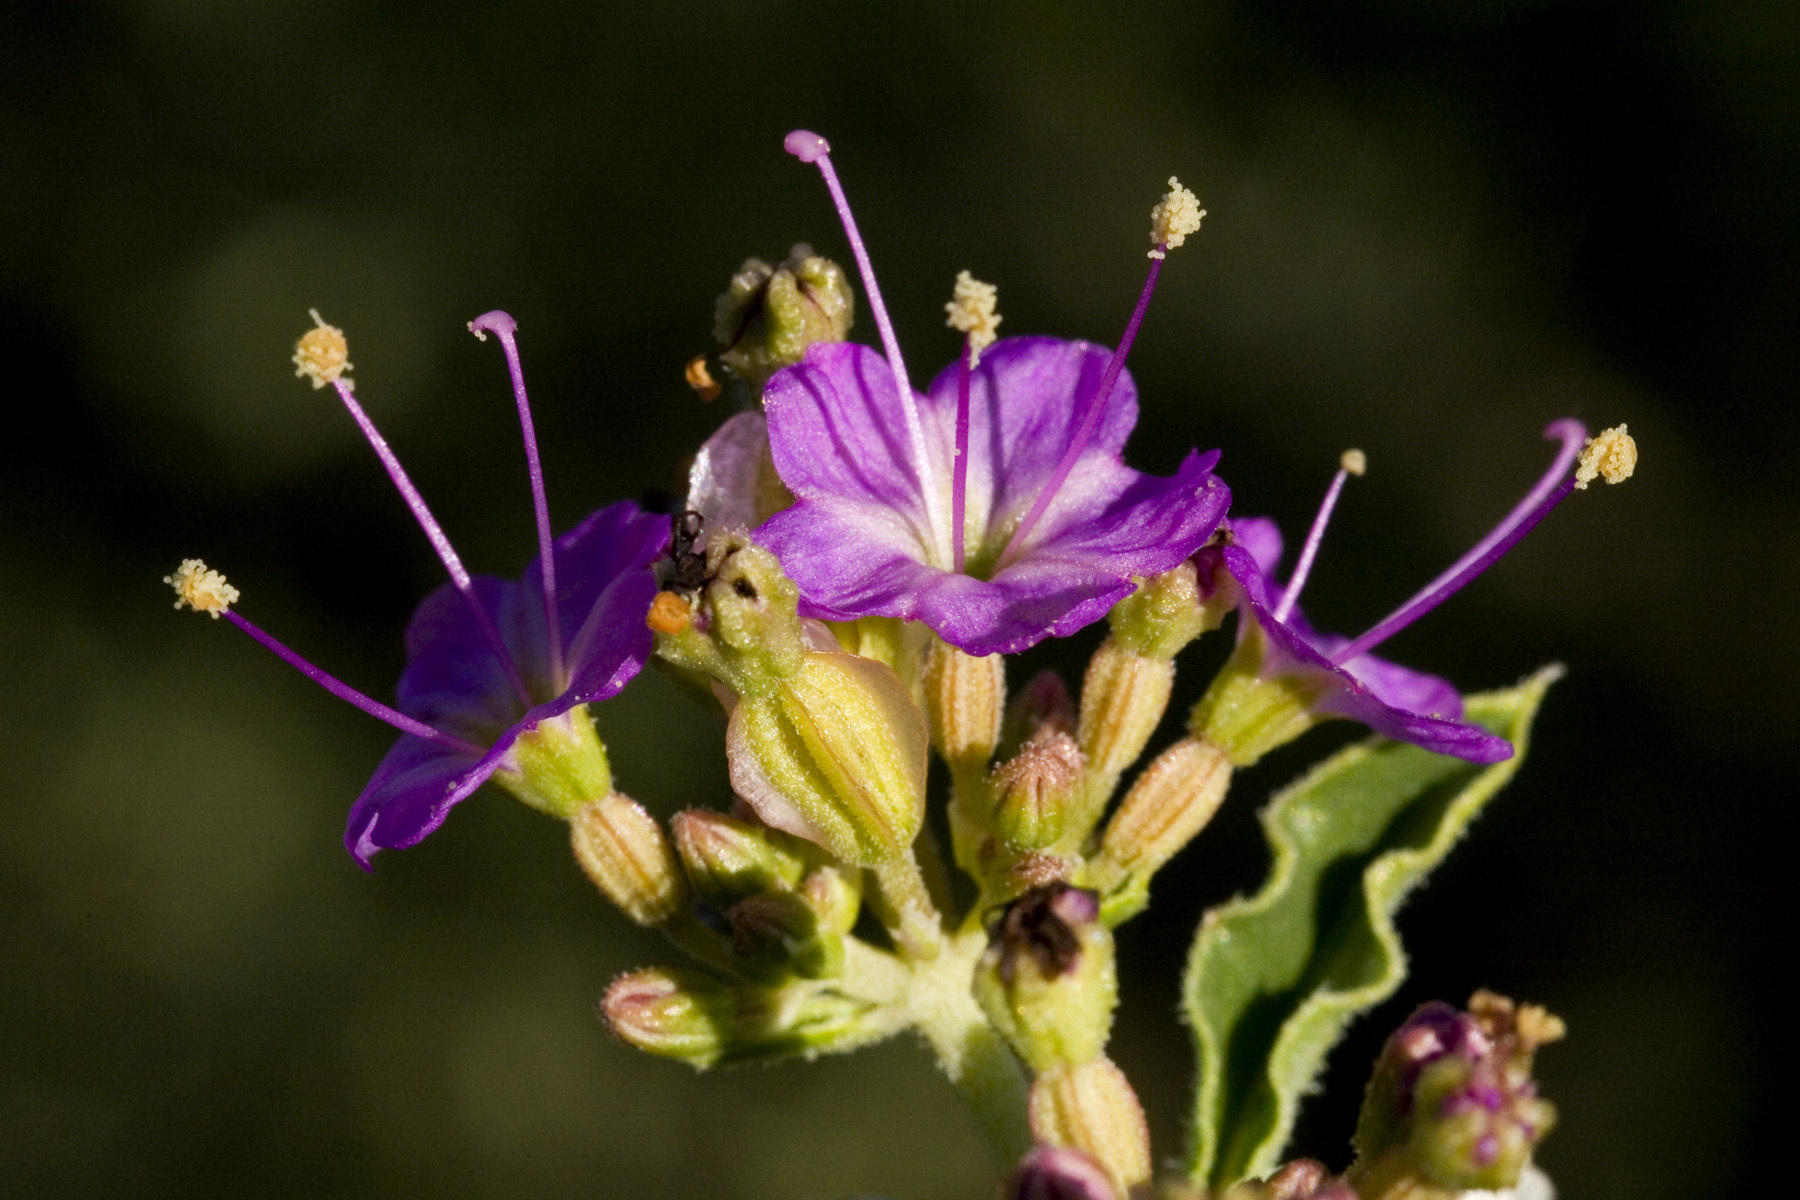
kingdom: Plantae
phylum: Tracheophyta
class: Magnoliopsida
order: Caryophyllales
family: Nyctaginaceae
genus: Acleisanthes
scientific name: Acleisanthes chenopodioides
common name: Goosefoot moonpod
